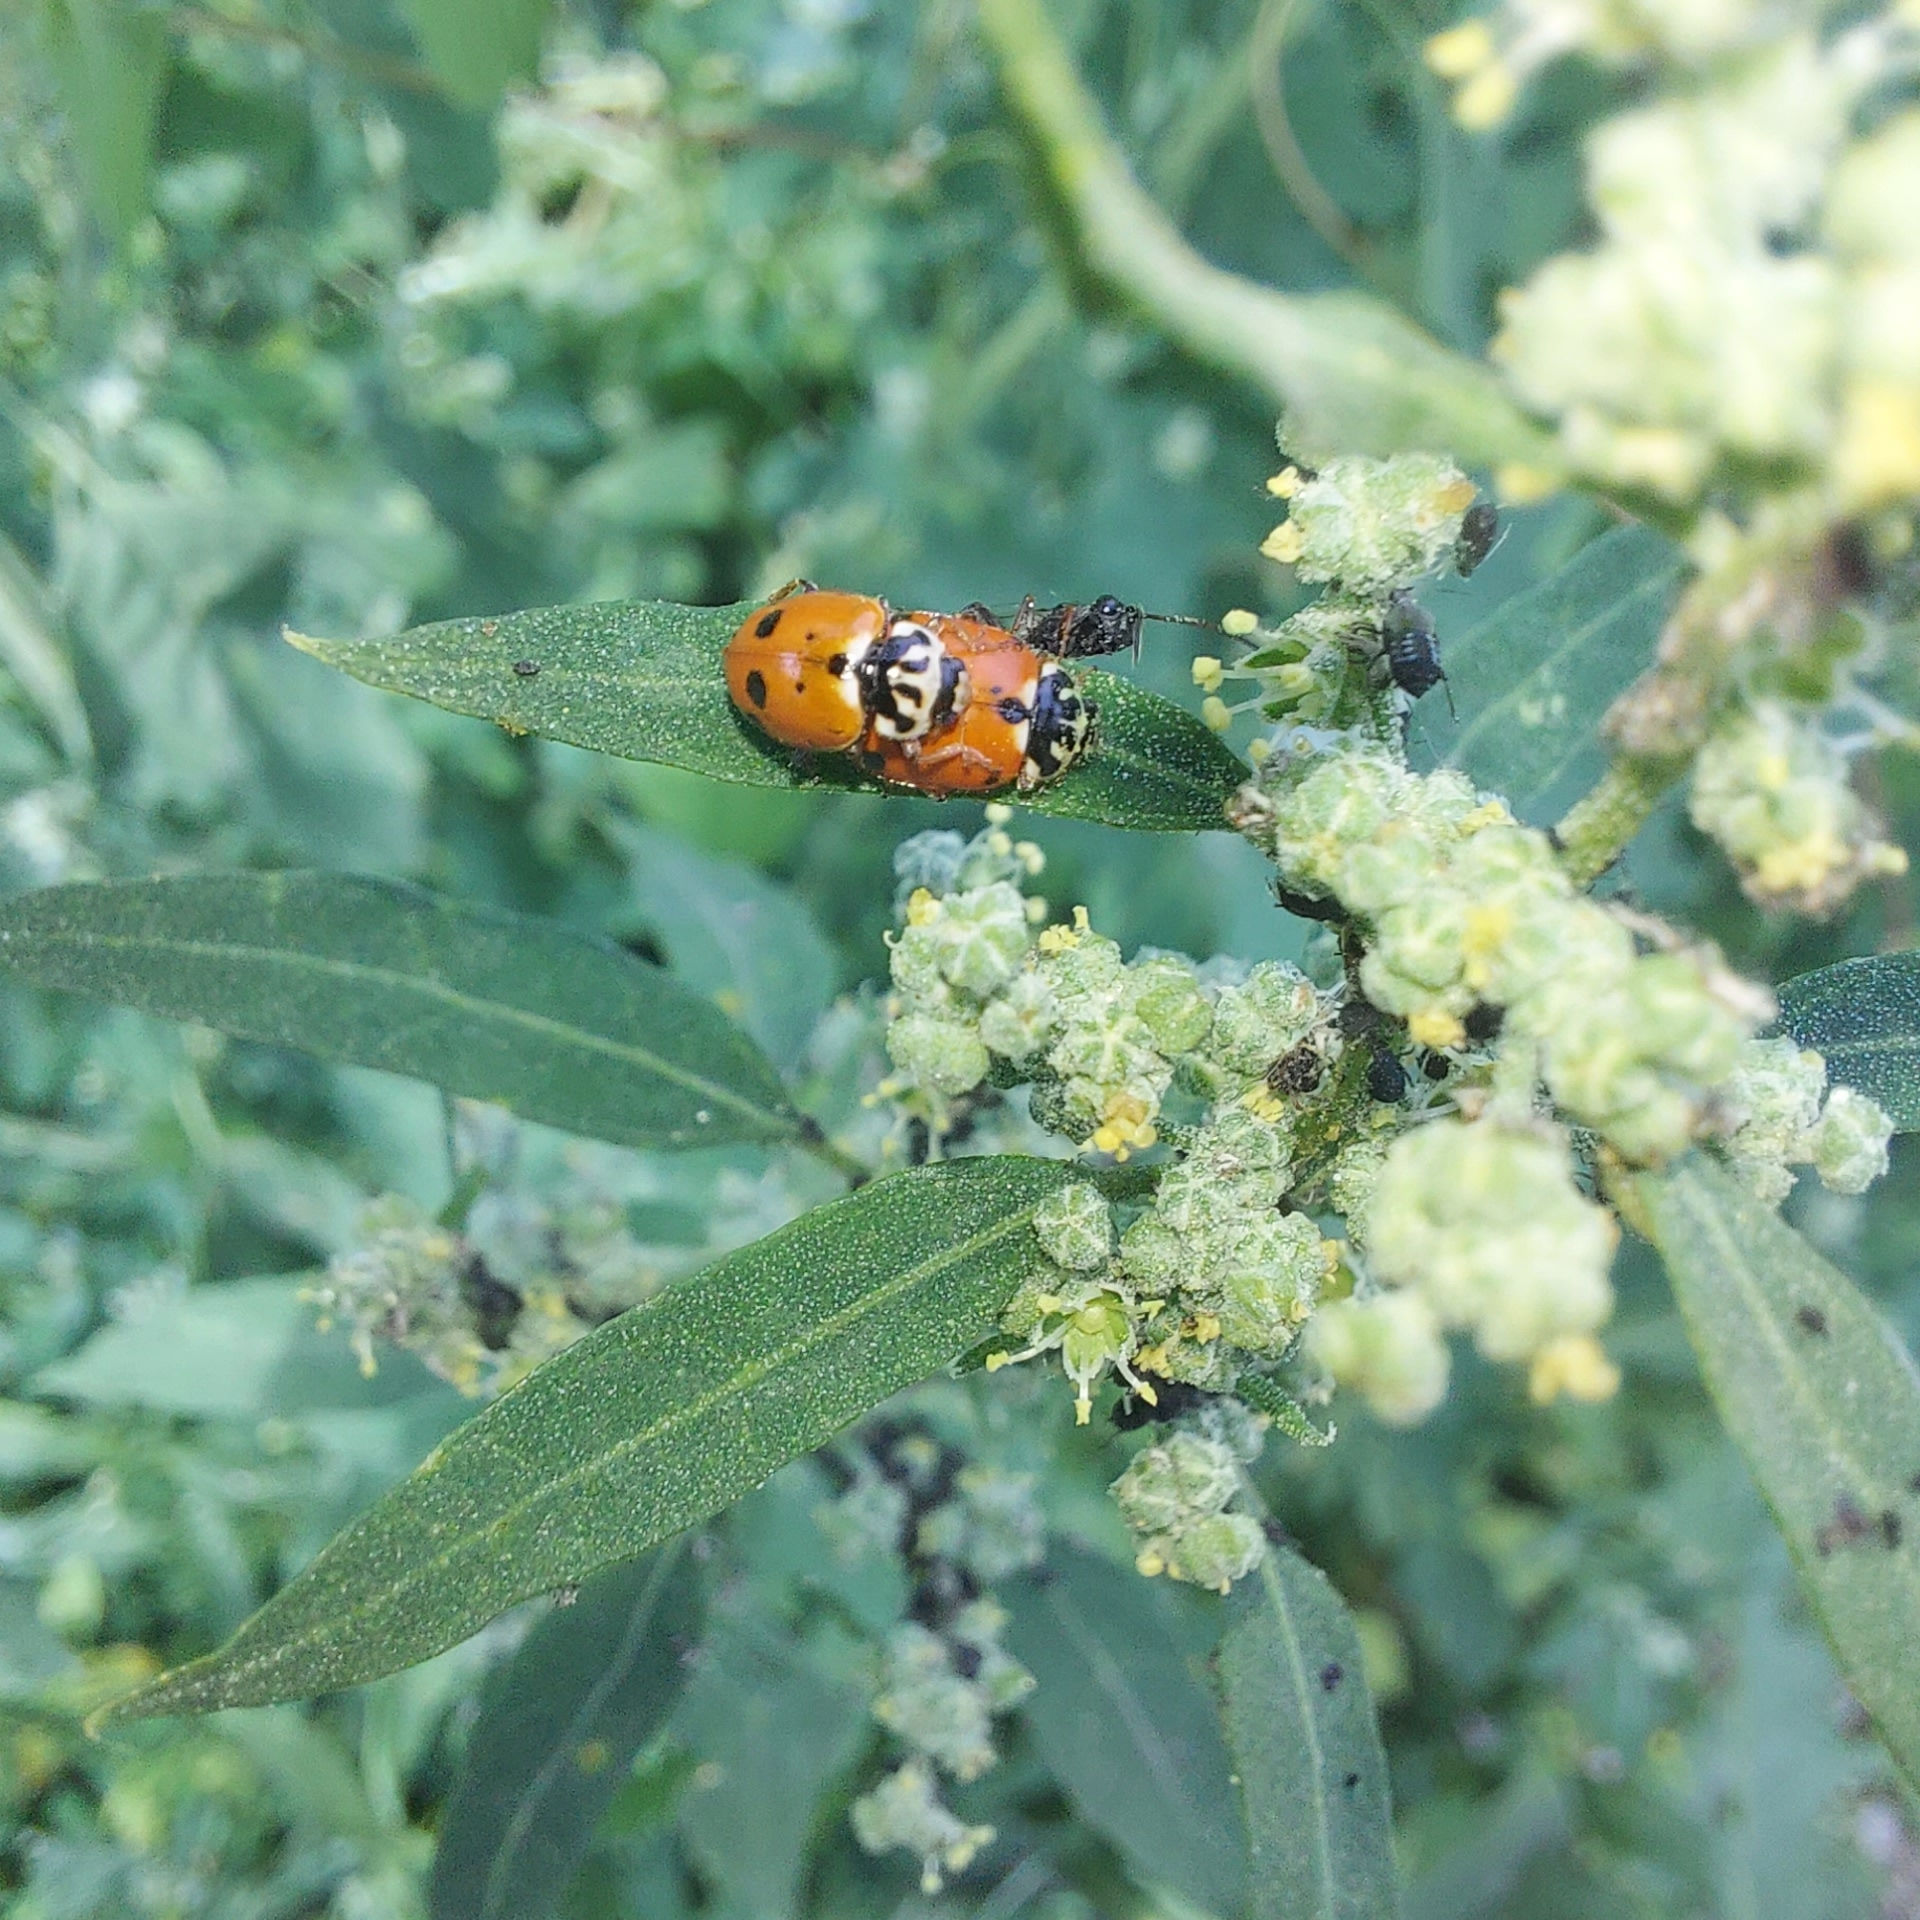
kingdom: Animalia
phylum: Arthropoda
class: Insecta
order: Coleoptera
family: Coccinellidae
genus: Hippodamia
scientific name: Hippodamia variegata
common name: Ladybird beetle
